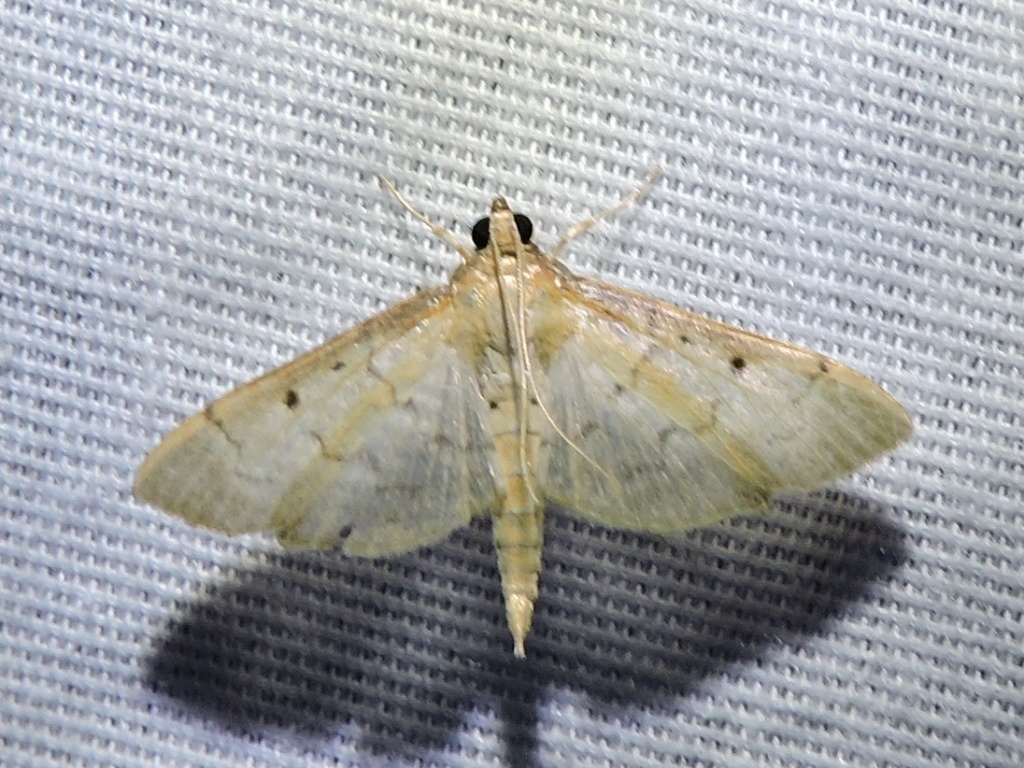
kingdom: Animalia
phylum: Arthropoda
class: Insecta
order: Lepidoptera
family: Crambidae
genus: Herpetogramma
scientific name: Herpetogramma bipunctalis
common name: Southern beet webworm
